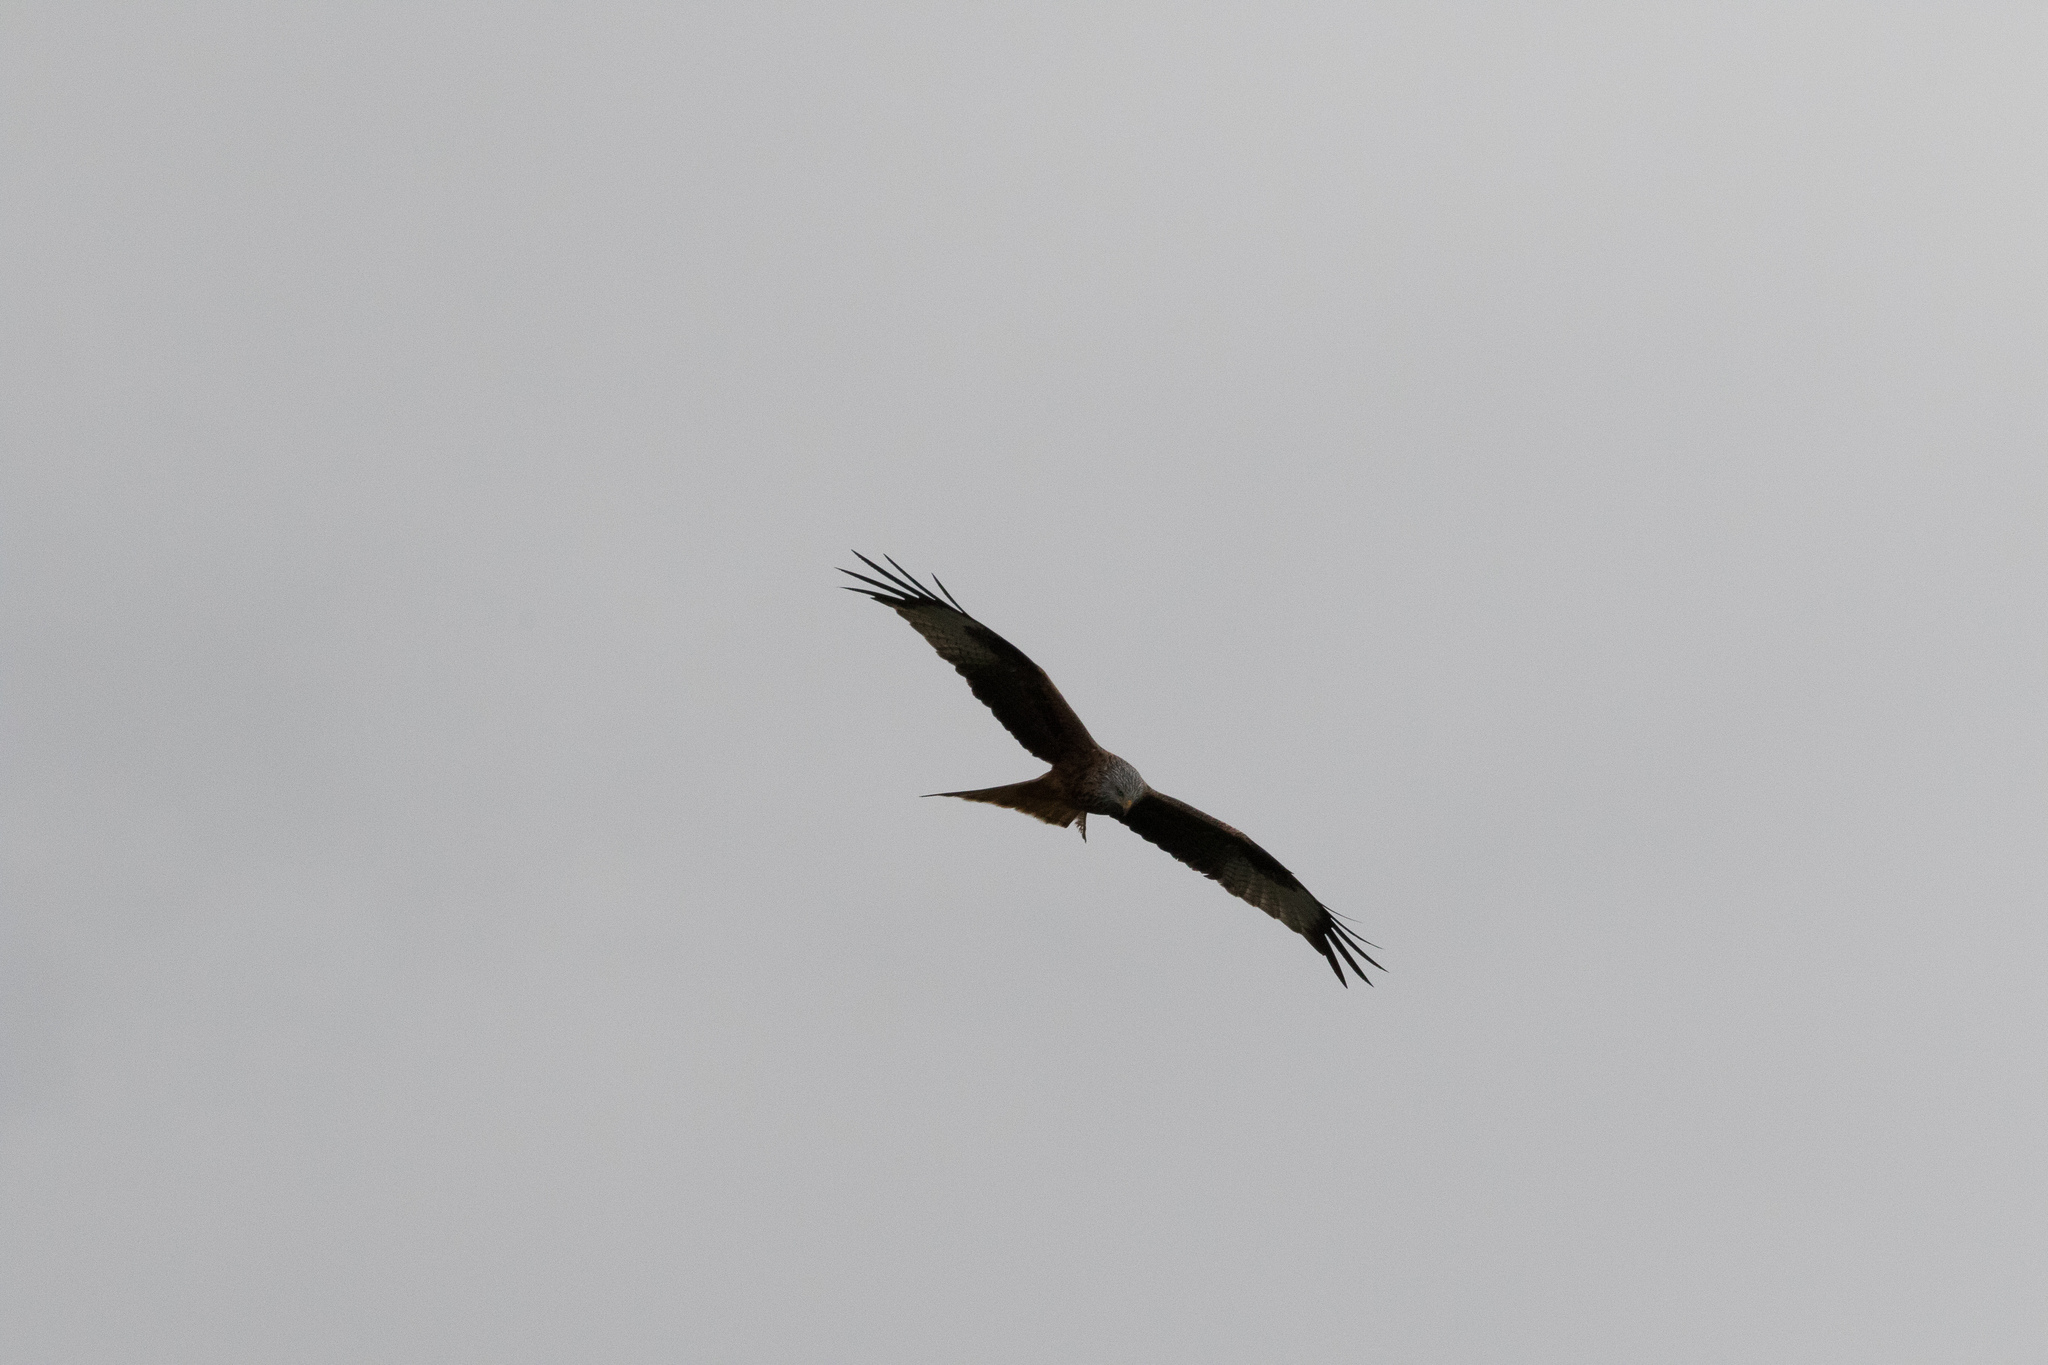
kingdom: Animalia
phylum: Chordata
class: Aves
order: Accipitriformes
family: Accipitridae
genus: Milvus
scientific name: Milvus milvus
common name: Red kite
